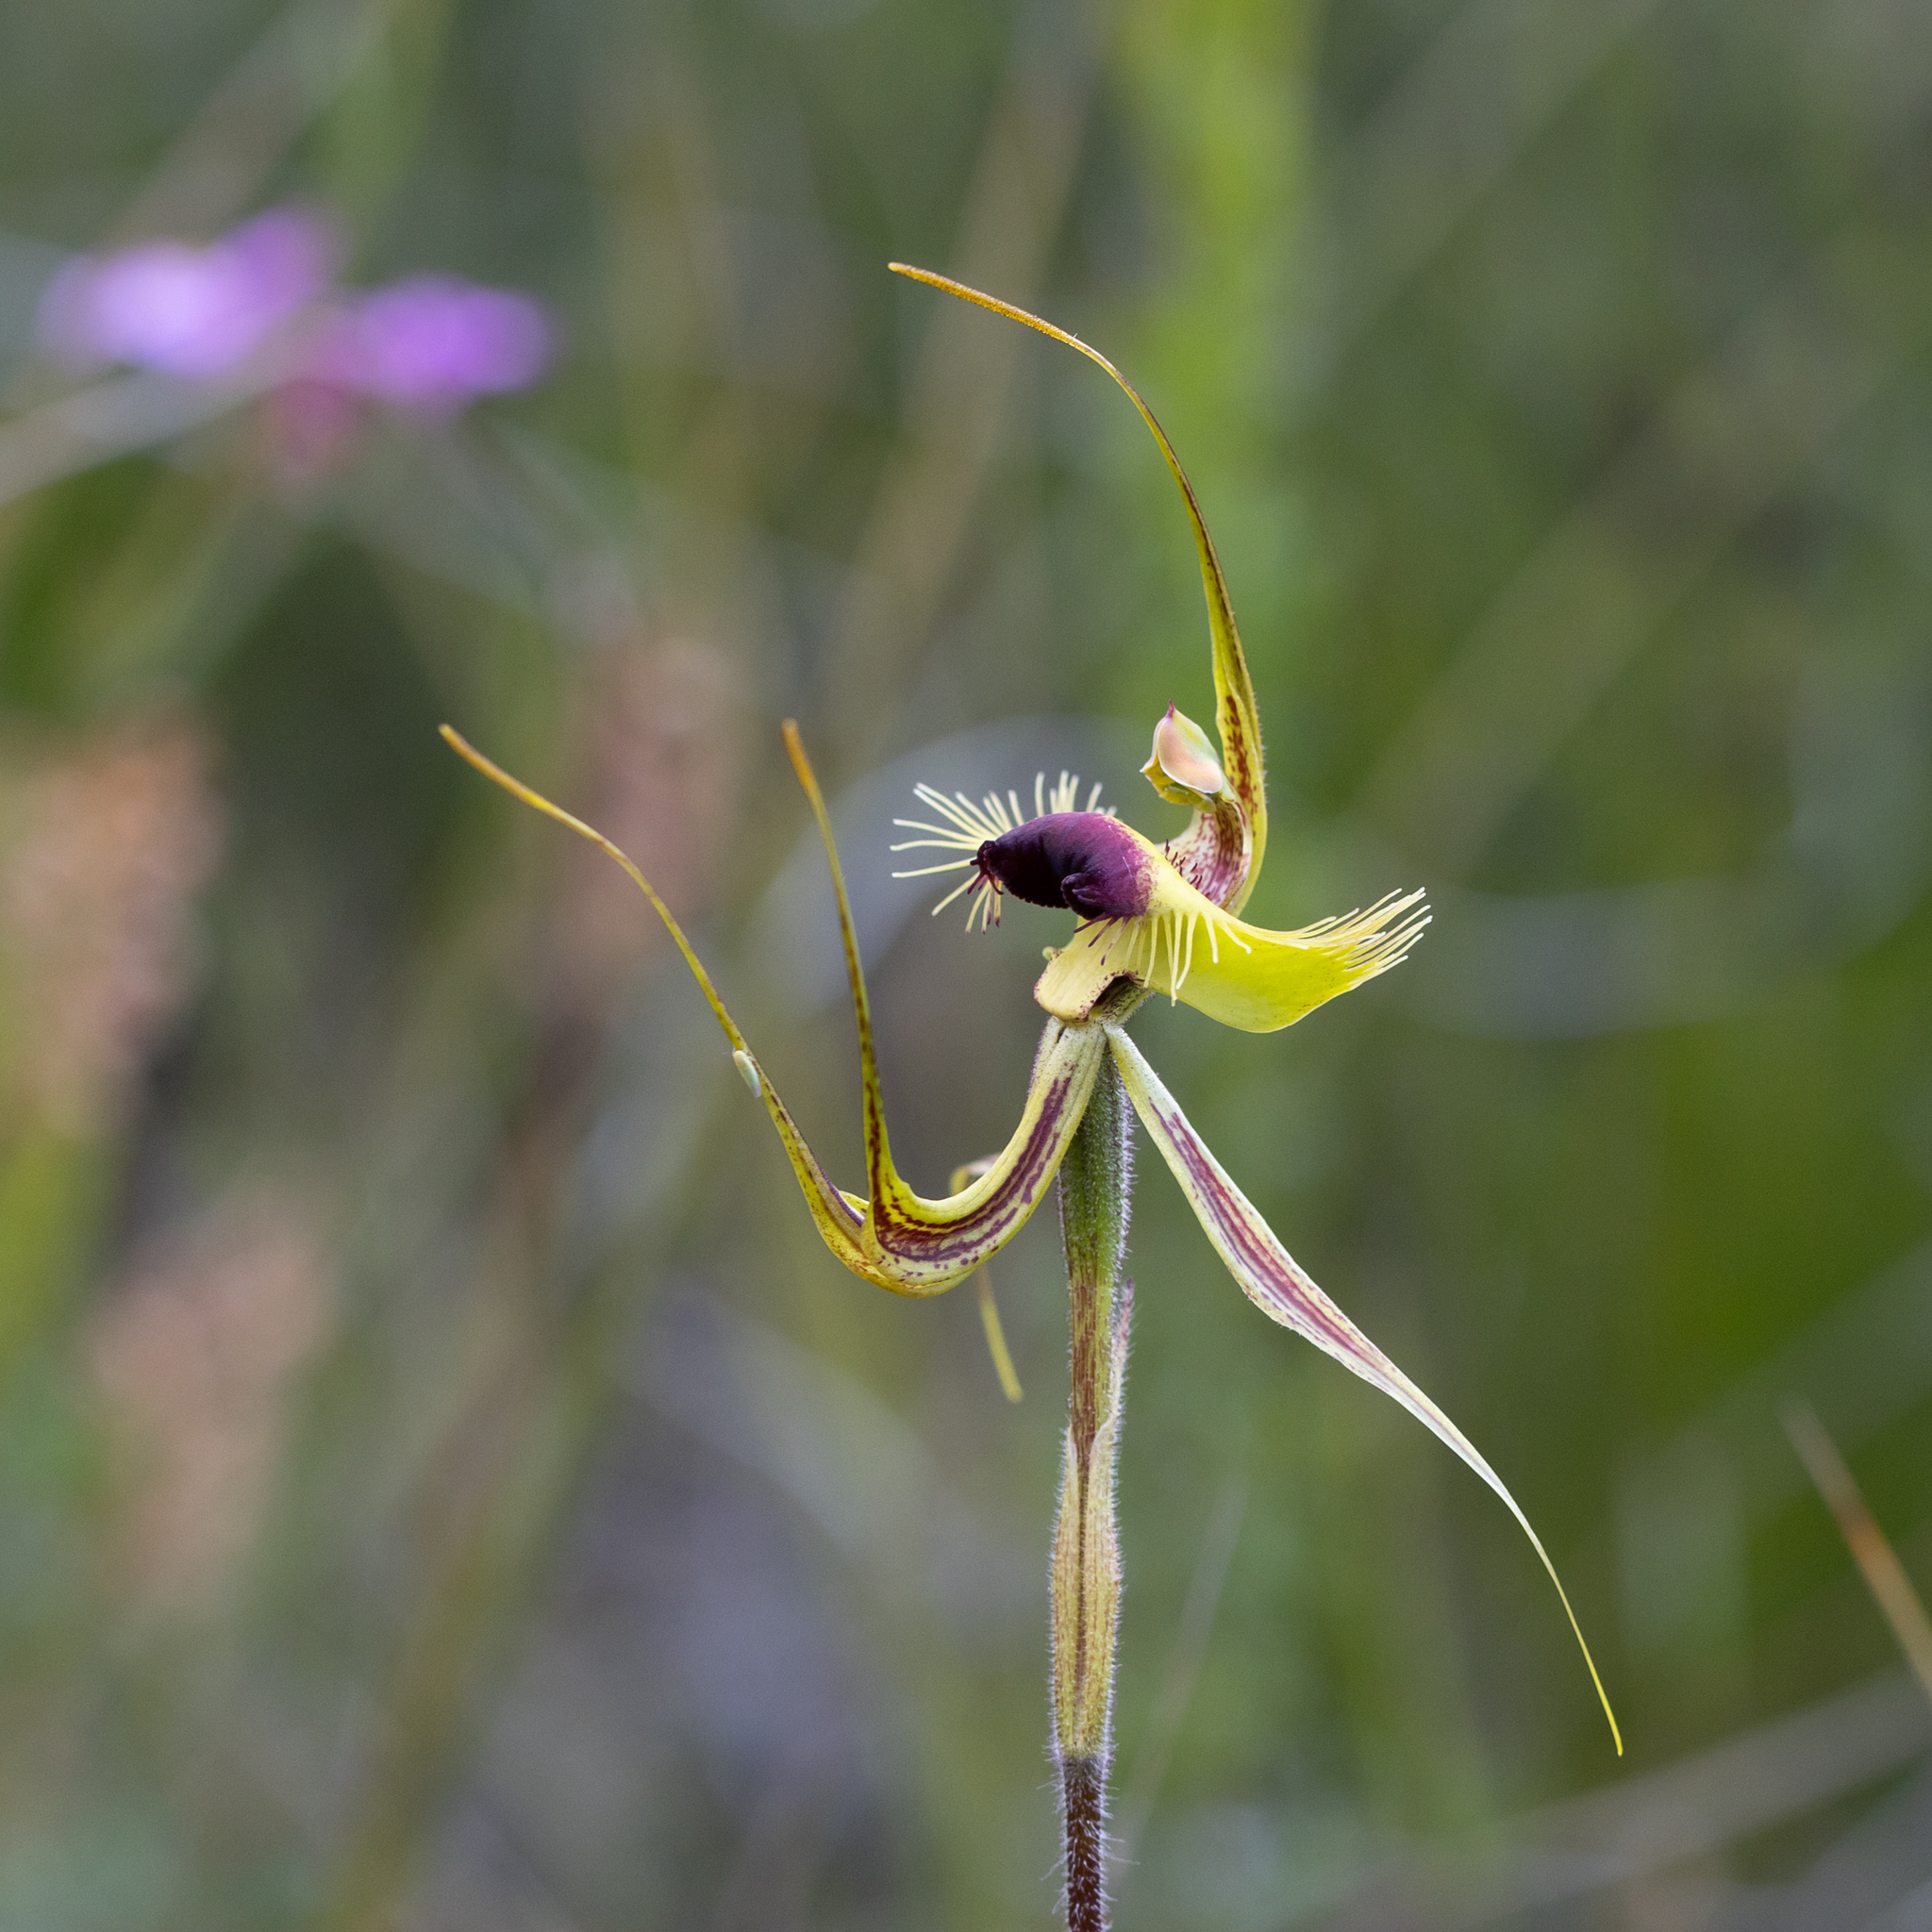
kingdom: Plantae
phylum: Tracheophyta
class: Liliopsida
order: Asparagales
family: Orchidaceae
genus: Caladenia
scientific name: Caladenia lobata
